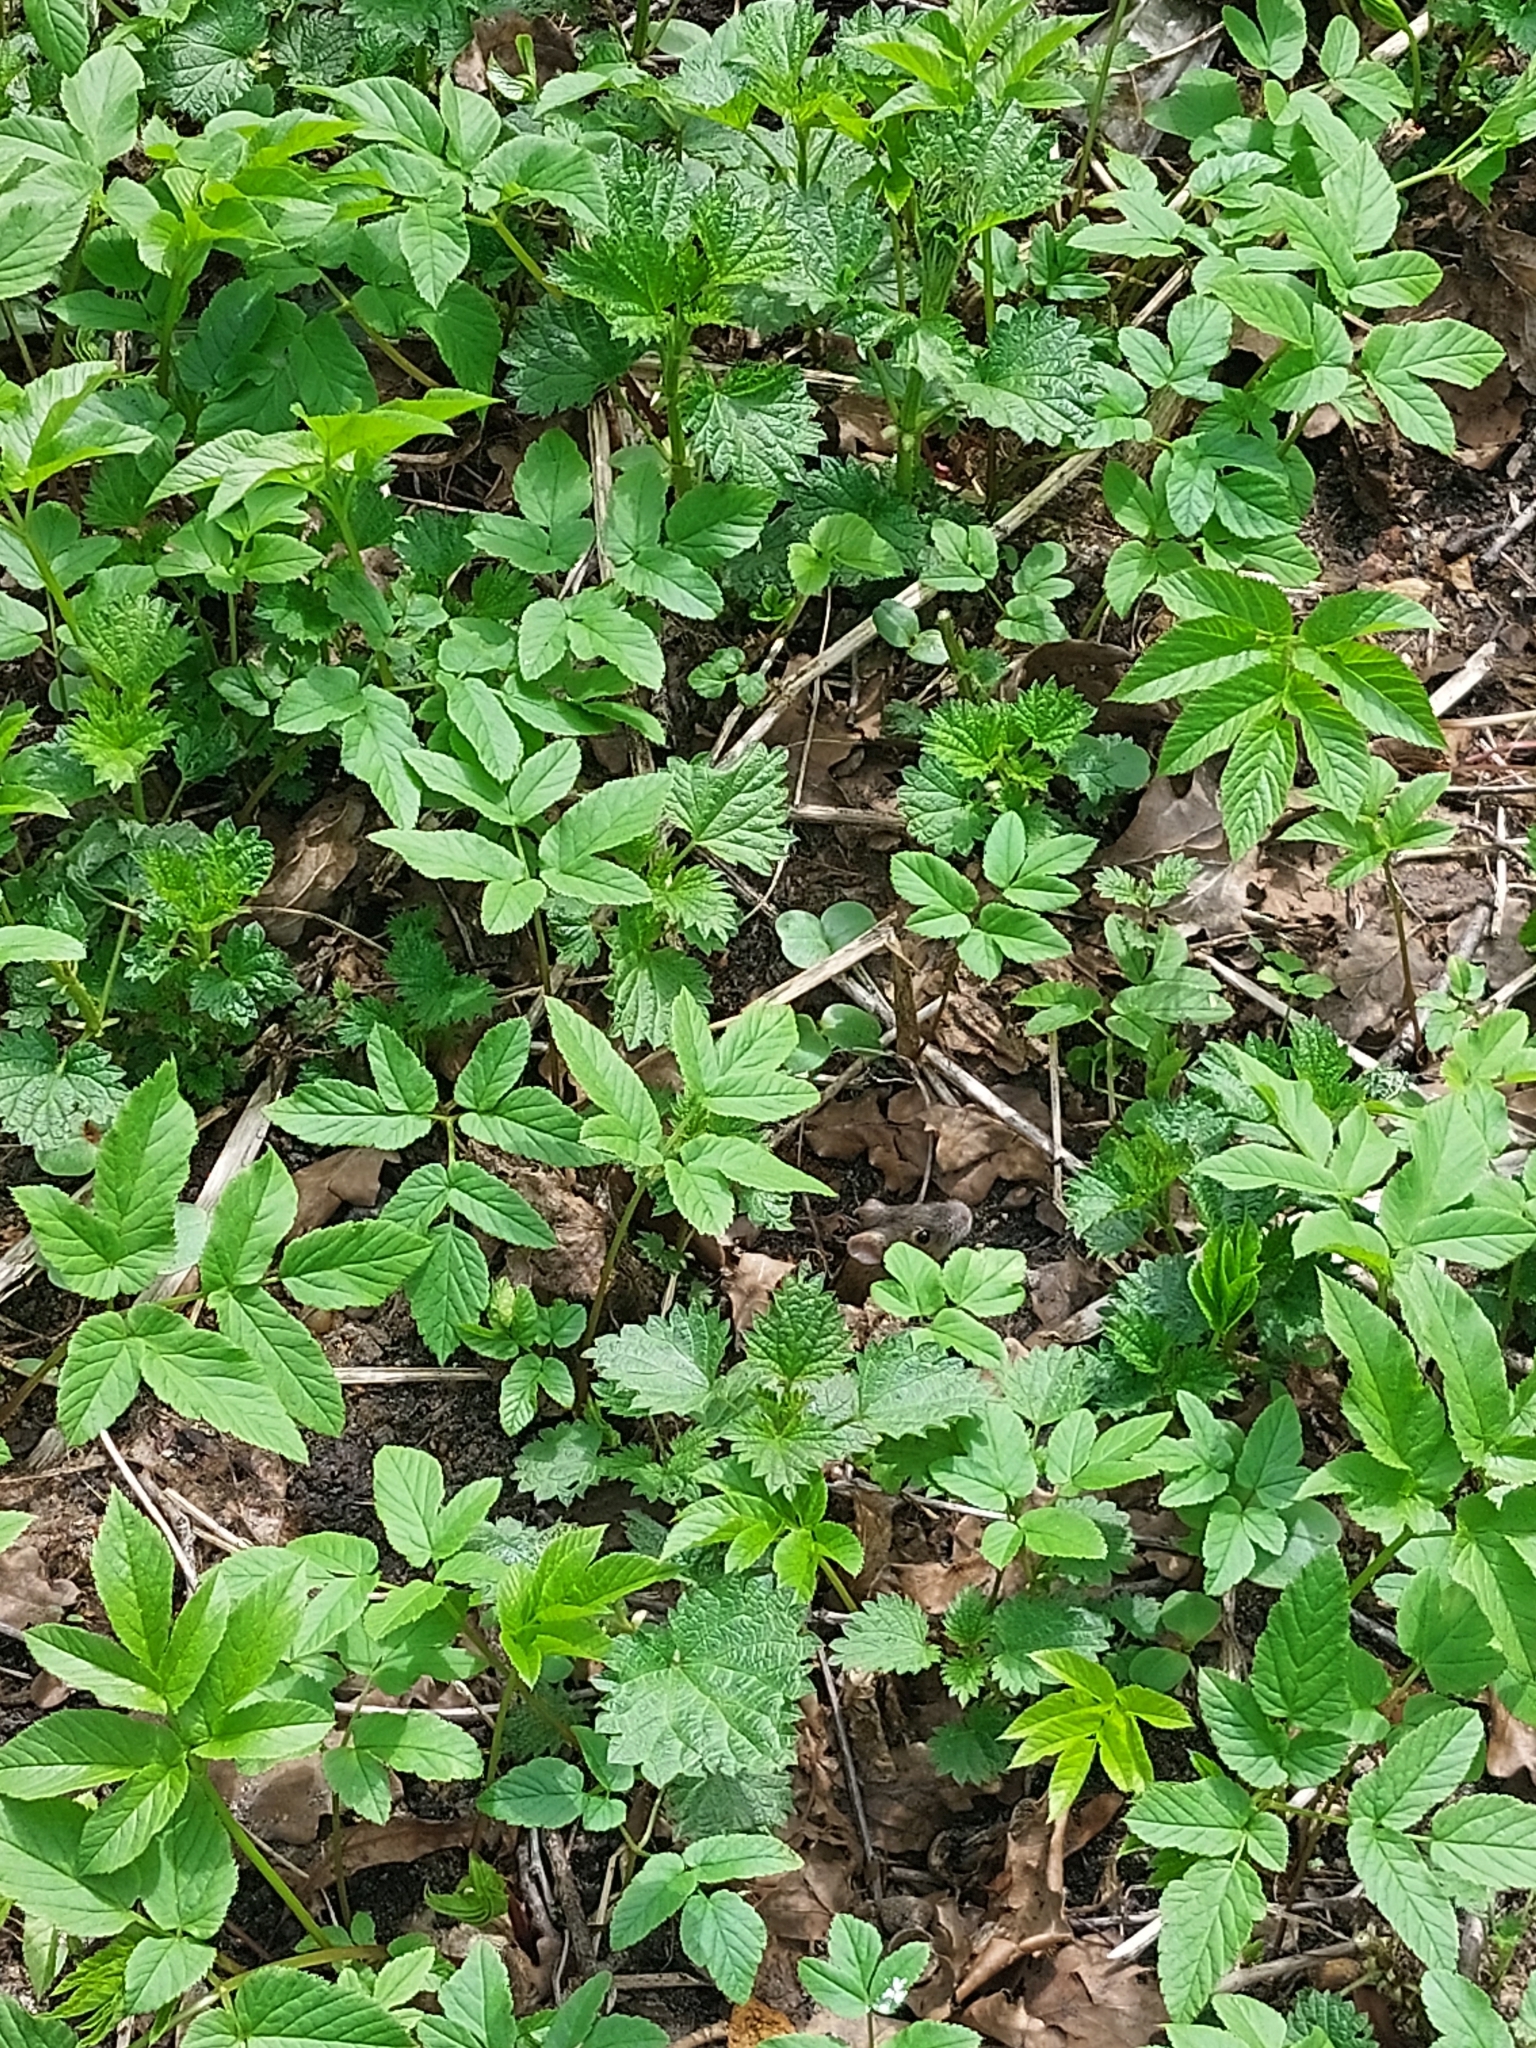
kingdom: Plantae
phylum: Tracheophyta
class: Magnoliopsida
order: Rosales
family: Urticaceae
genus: Urtica
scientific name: Urtica dioica
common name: Common nettle
